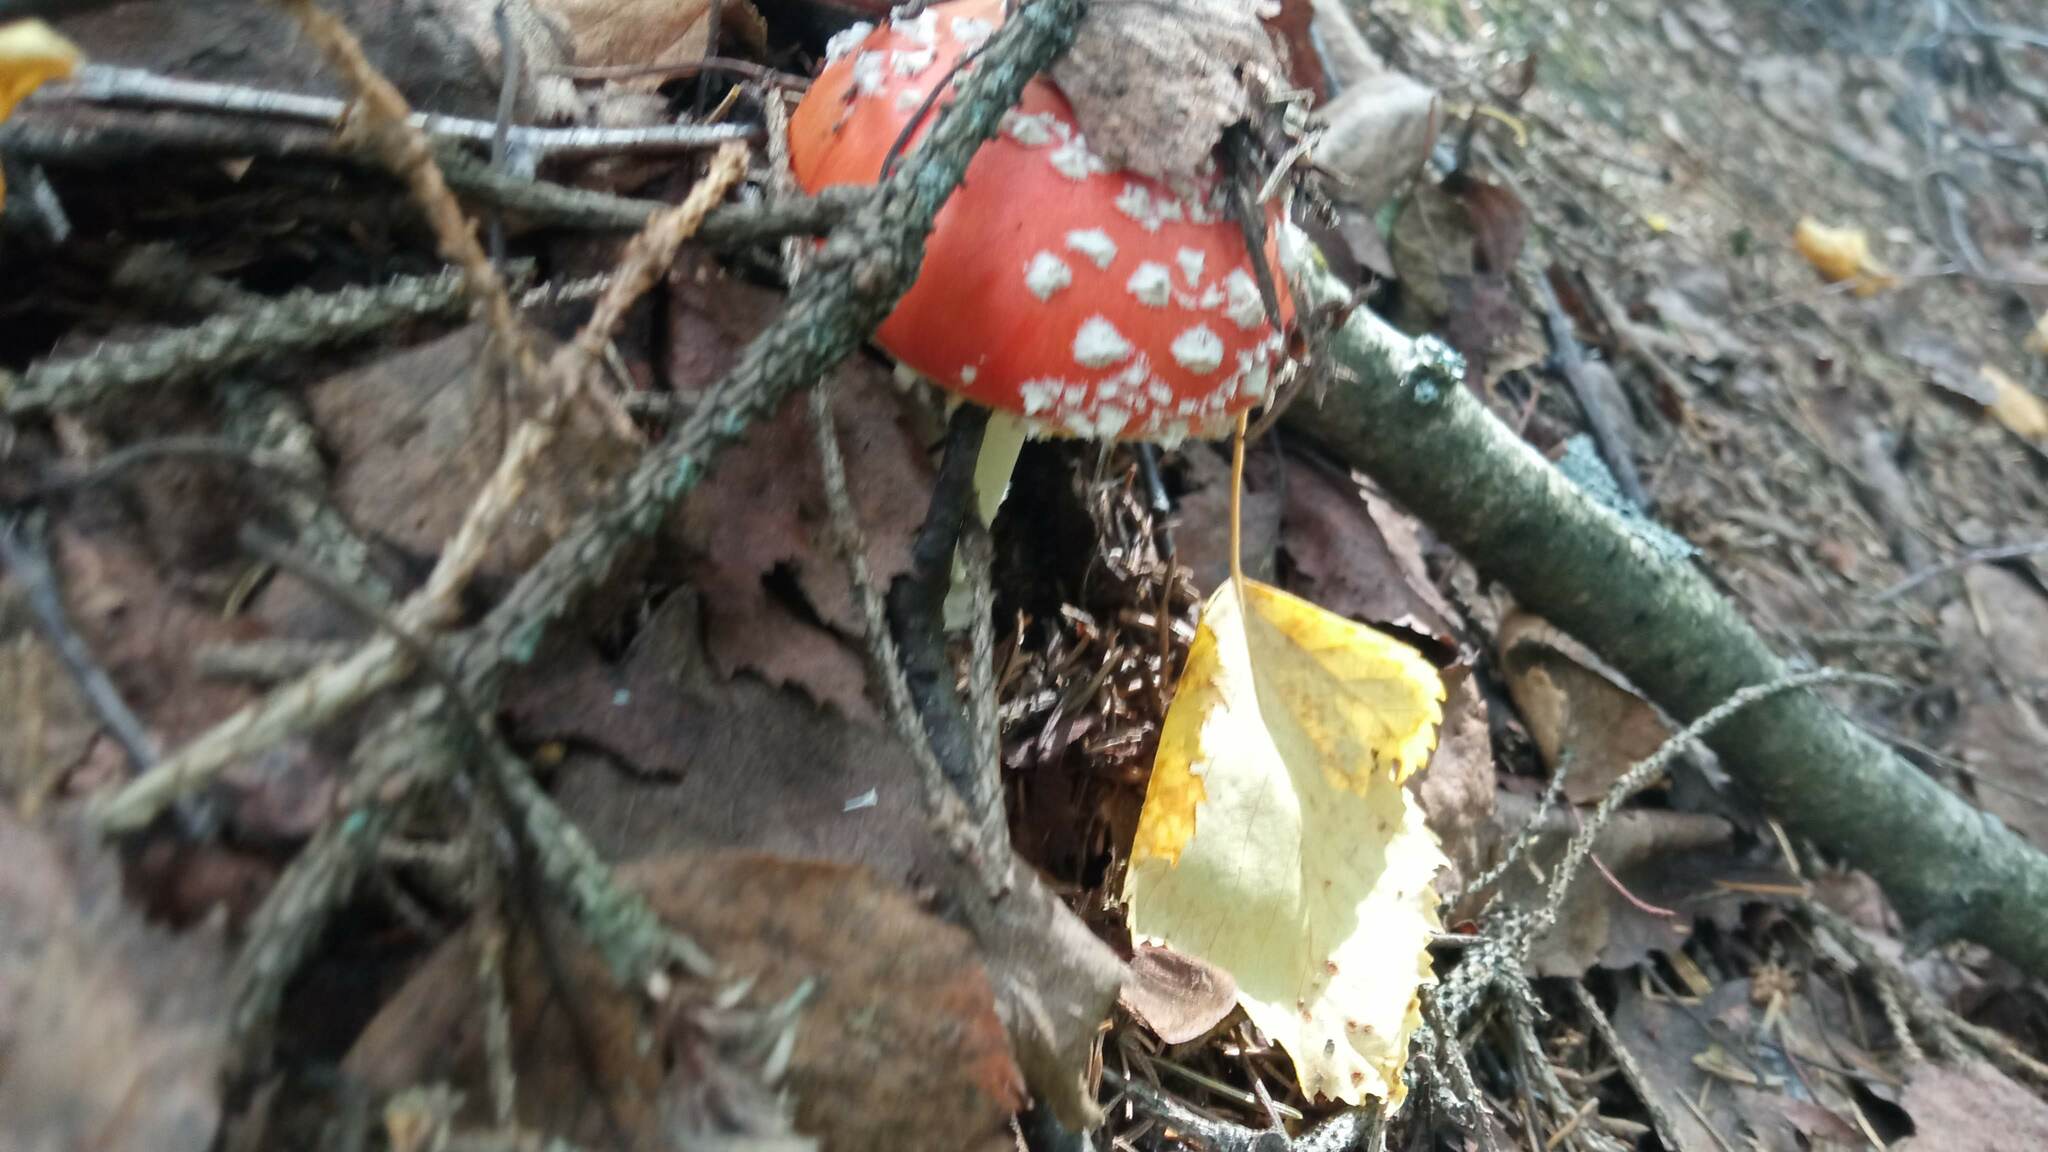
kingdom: Fungi
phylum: Basidiomycota
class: Agaricomycetes
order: Agaricales
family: Amanitaceae
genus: Amanita
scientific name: Amanita muscaria
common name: Fly agaric
